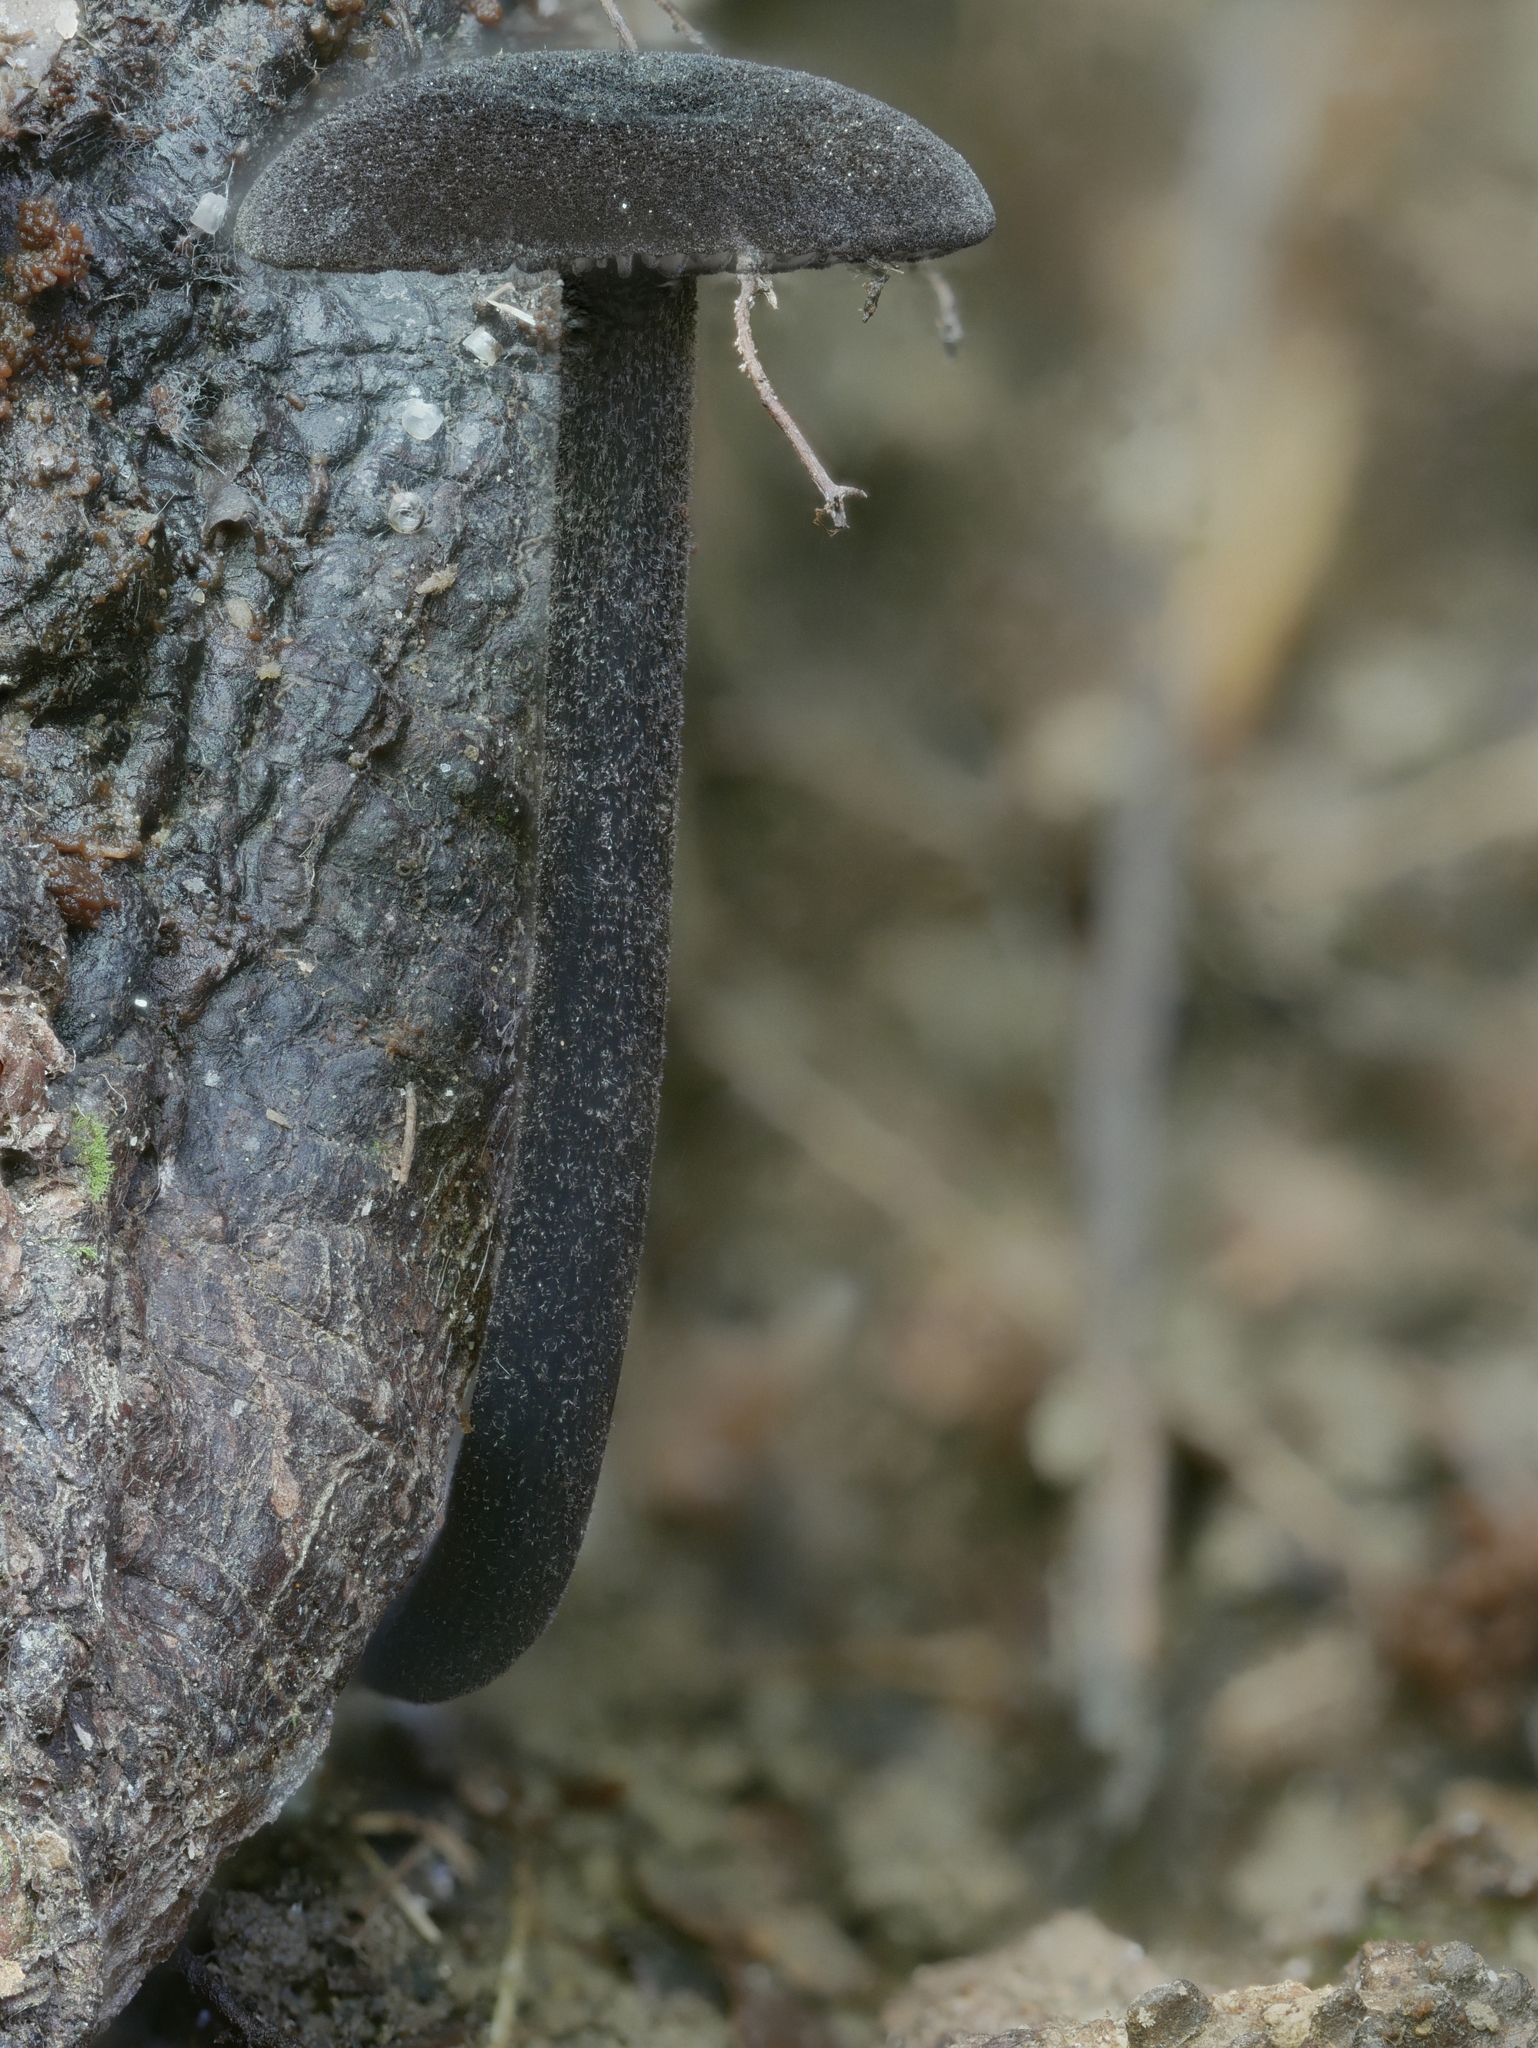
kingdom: Fungi
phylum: Basidiomycota
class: Agaricomycetes
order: Agaricales
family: Entolomataceae
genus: Entoloma
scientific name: Entoloma serrulatum
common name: Blue edge pinkgill
